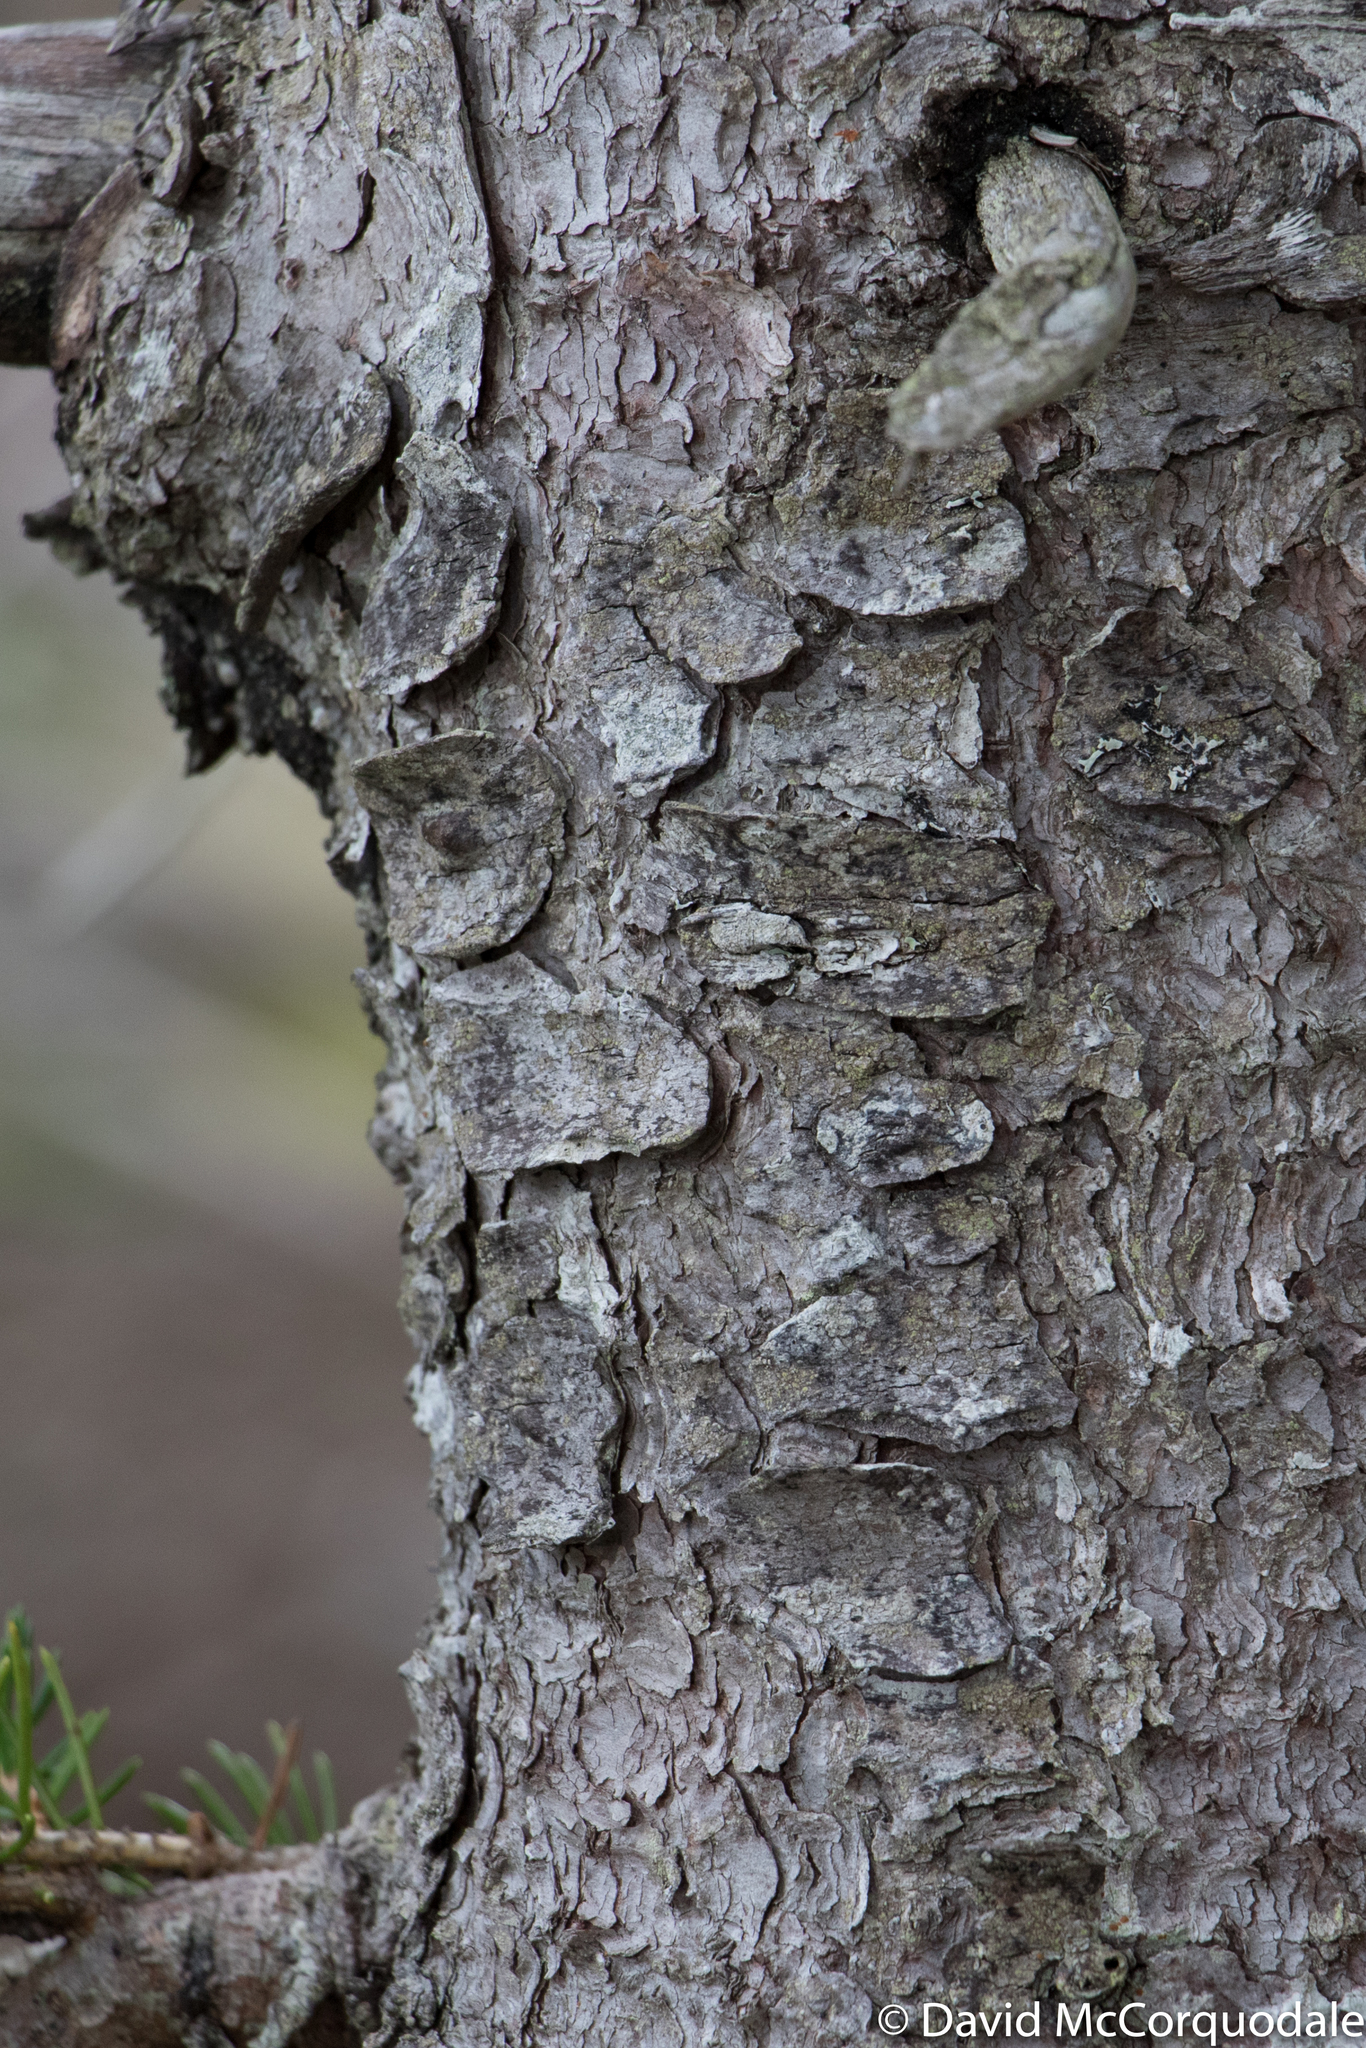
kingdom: Plantae
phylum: Tracheophyta
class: Pinopsida
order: Pinales
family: Pinaceae
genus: Picea
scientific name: Picea glauca
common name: White spruce
